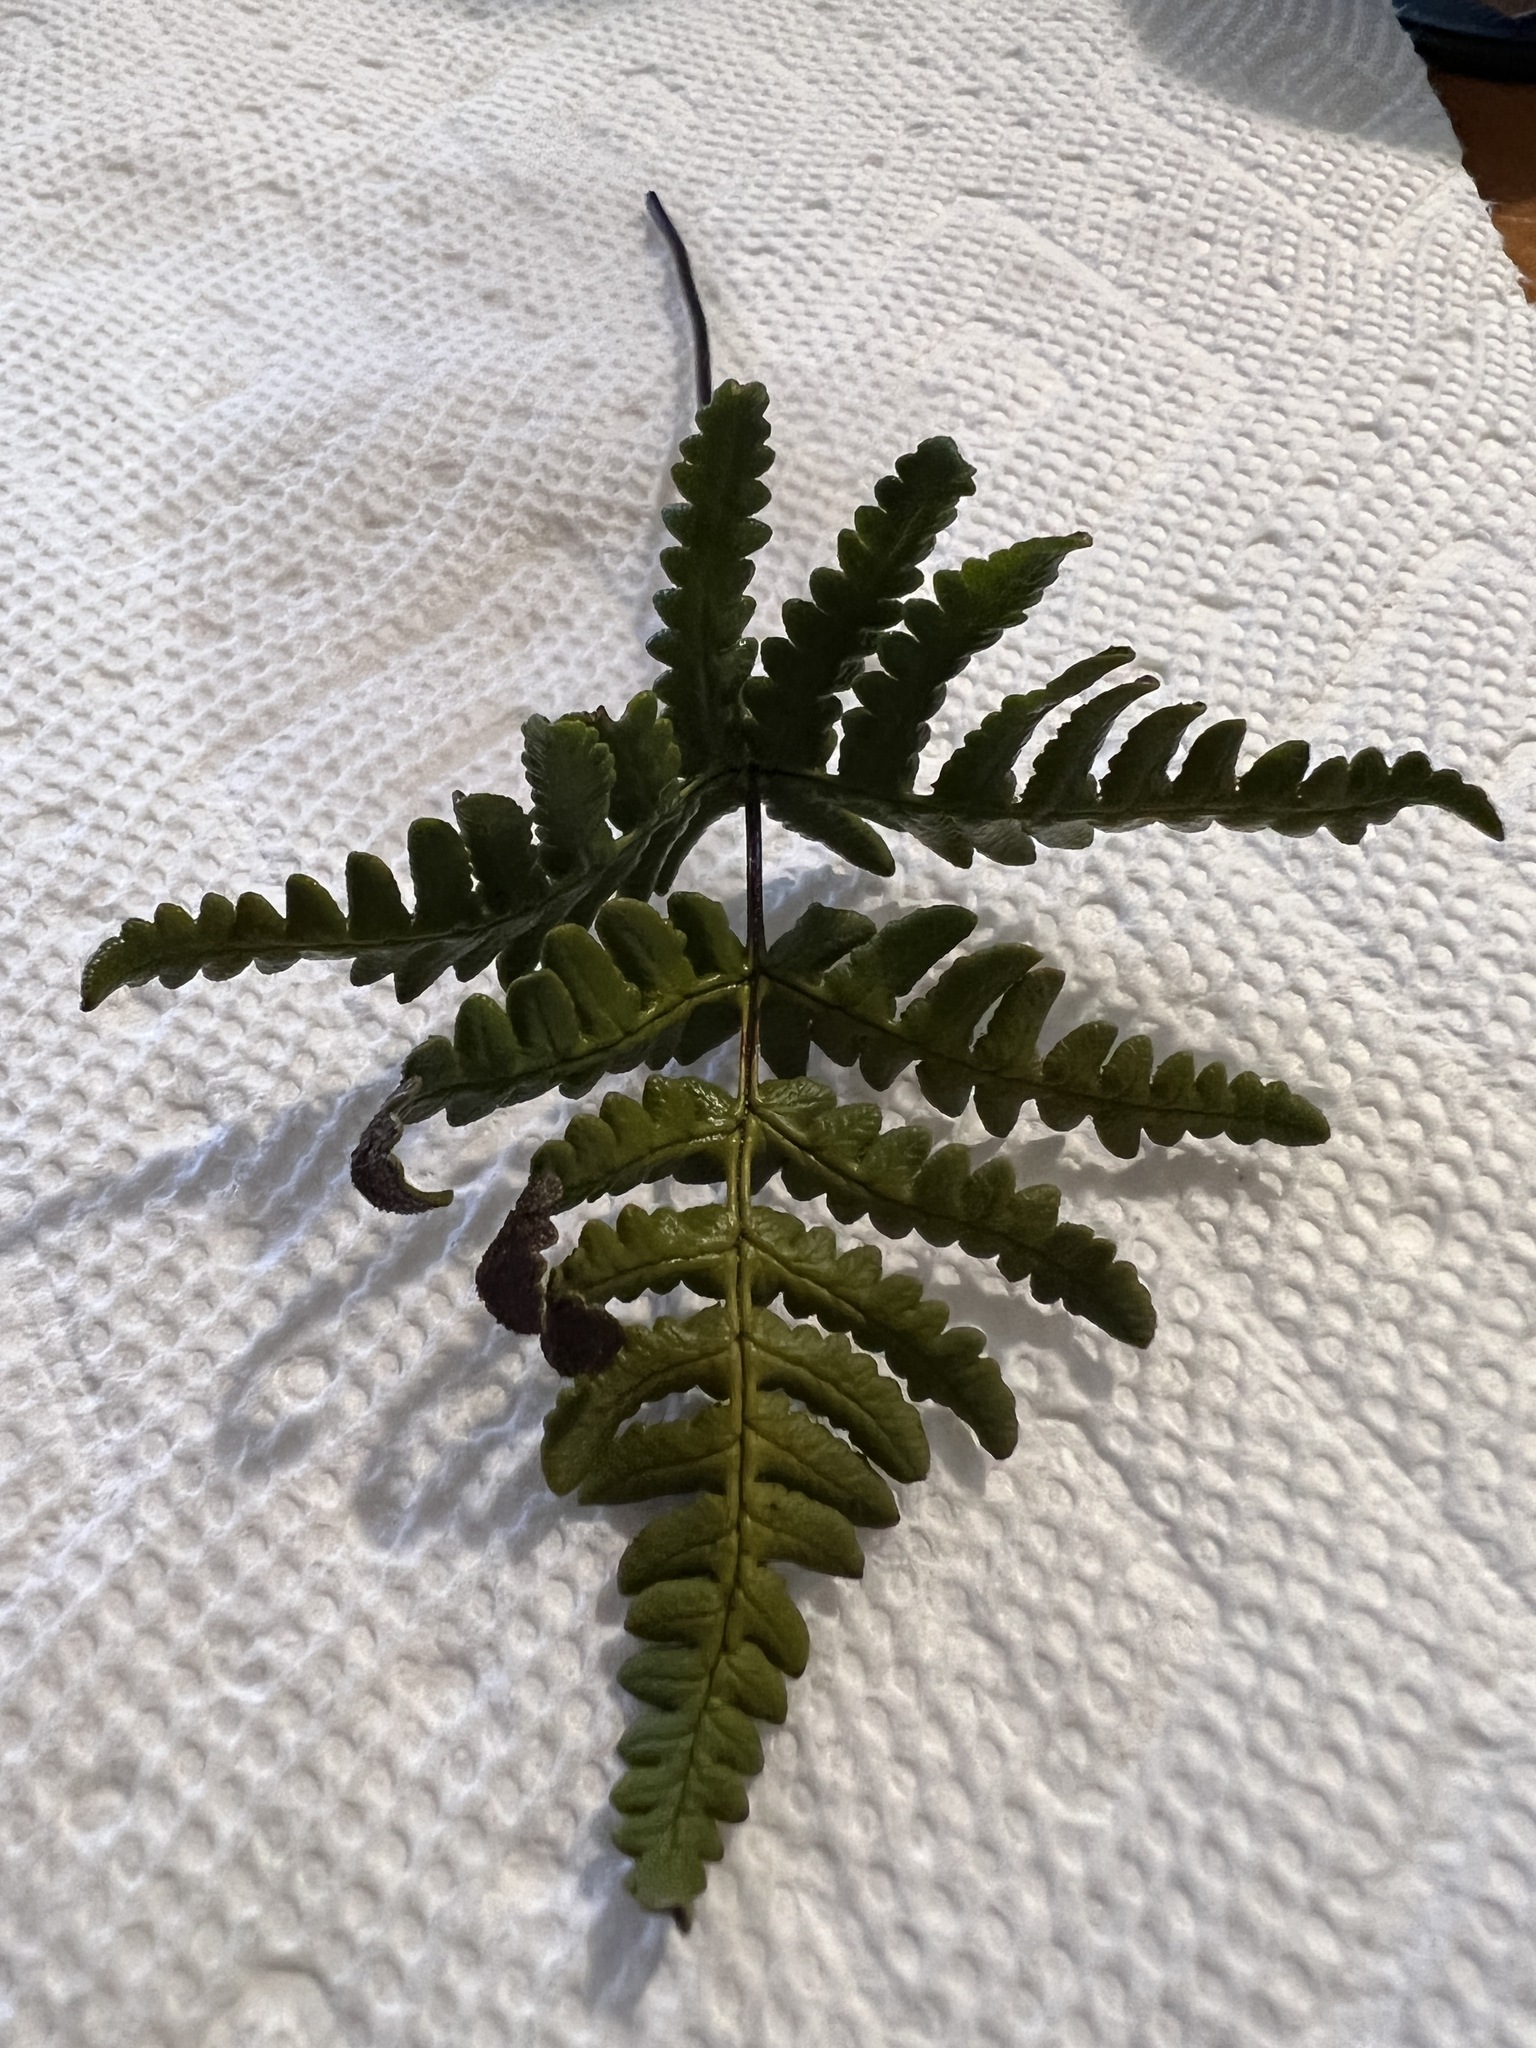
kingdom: Plantae
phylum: Tracheophyta
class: Polypodiopsida
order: Polypodiales
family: Pteridaceae
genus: Pentagramma
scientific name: Pentagramma triangularis
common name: Gold fern
